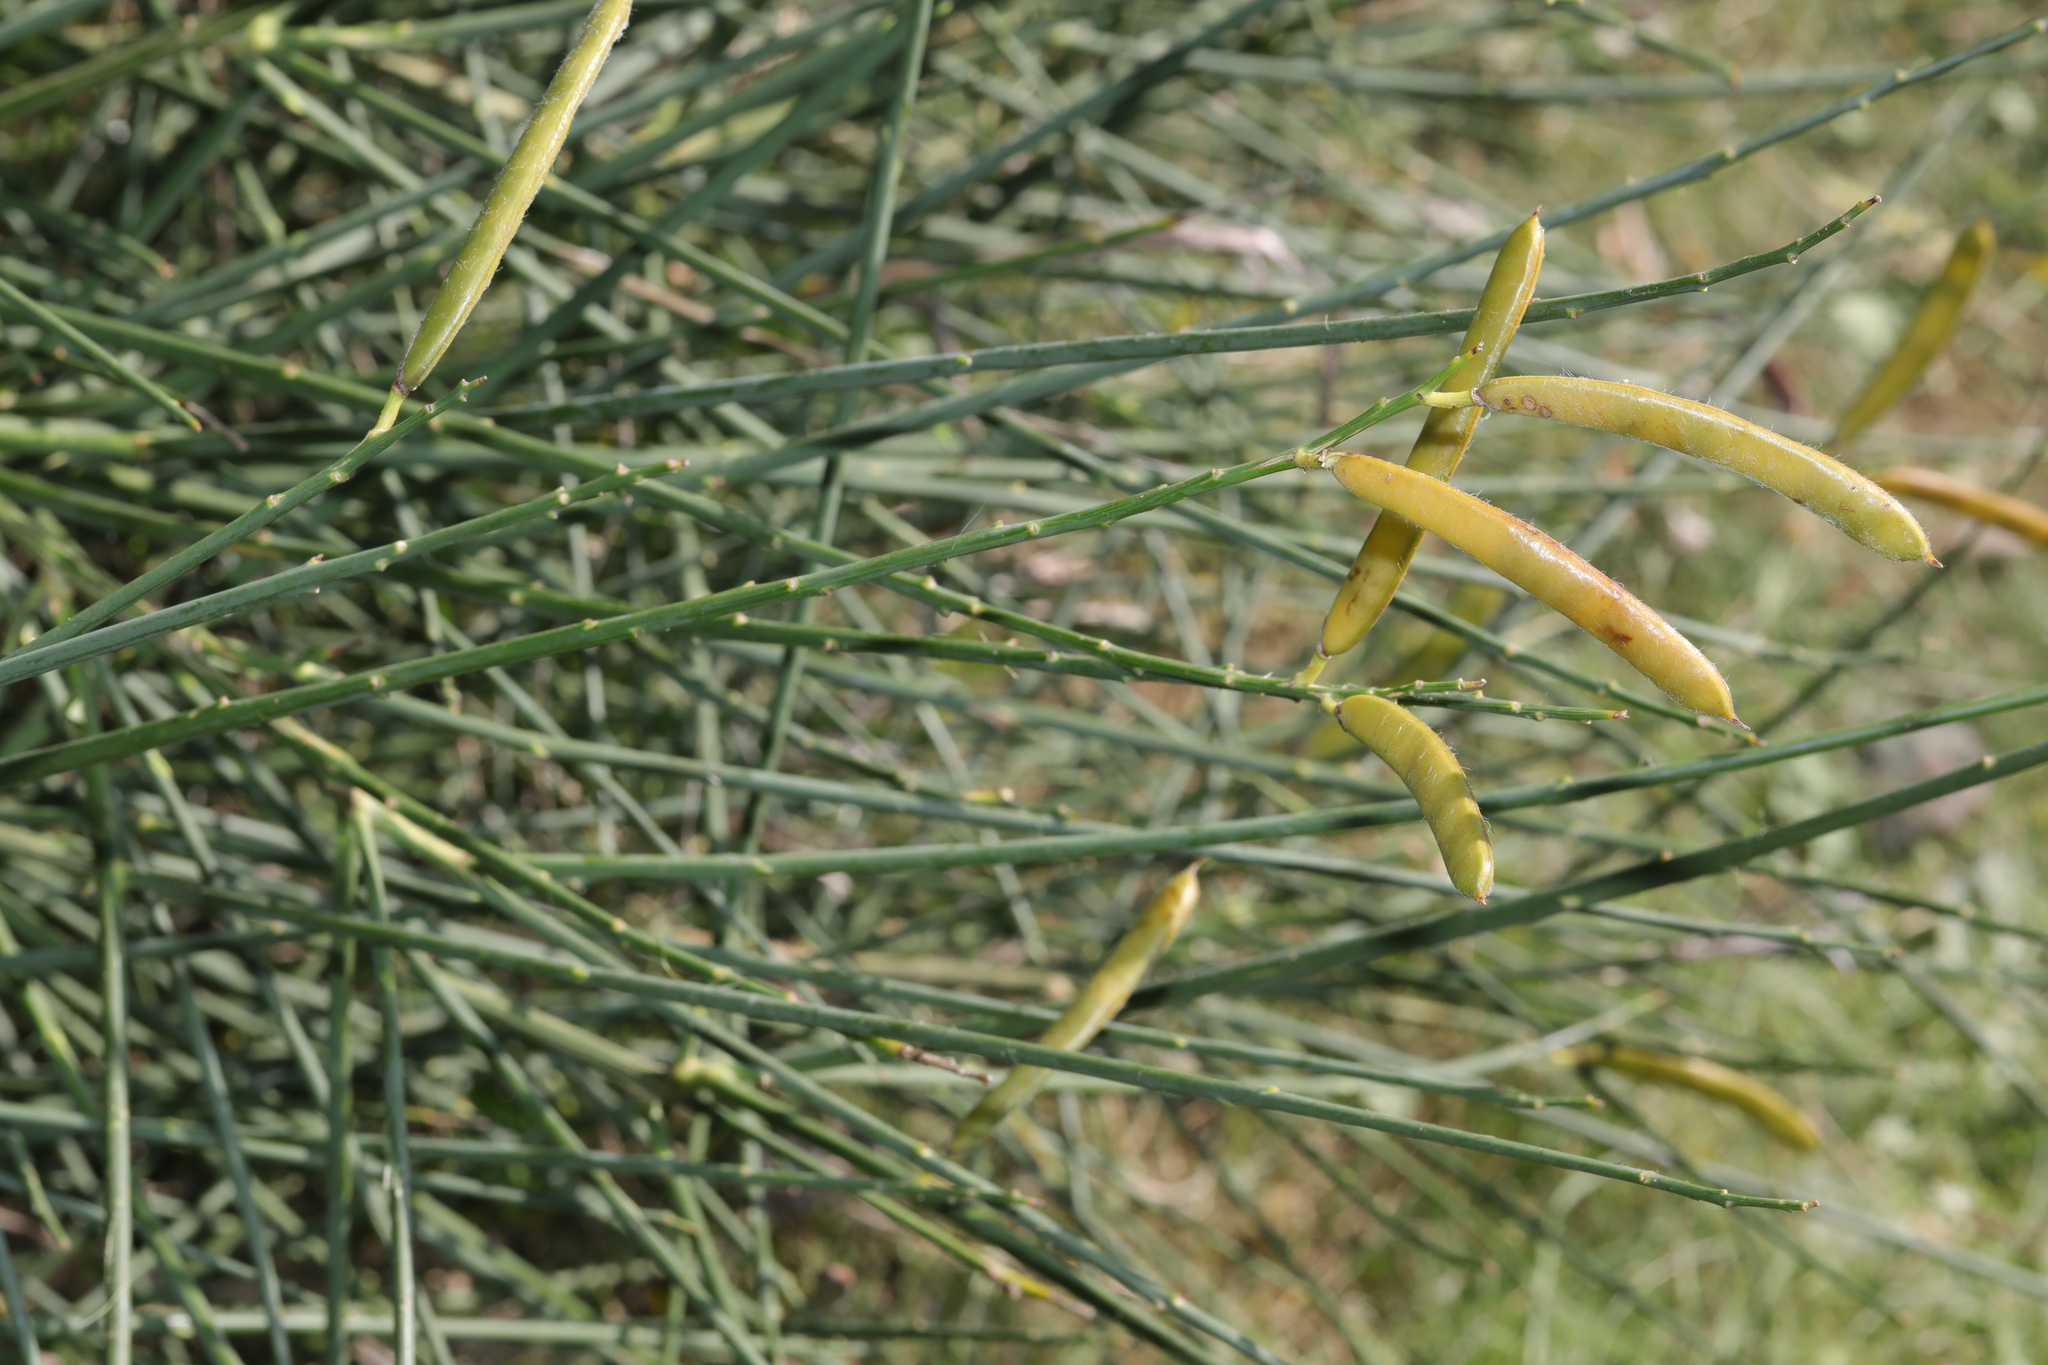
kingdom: Plantae
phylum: Tracheophyta
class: Magnoliopsida
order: Fabales
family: Fabaceae
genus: Spartium
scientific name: Spartium junceum
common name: Spanish broom
